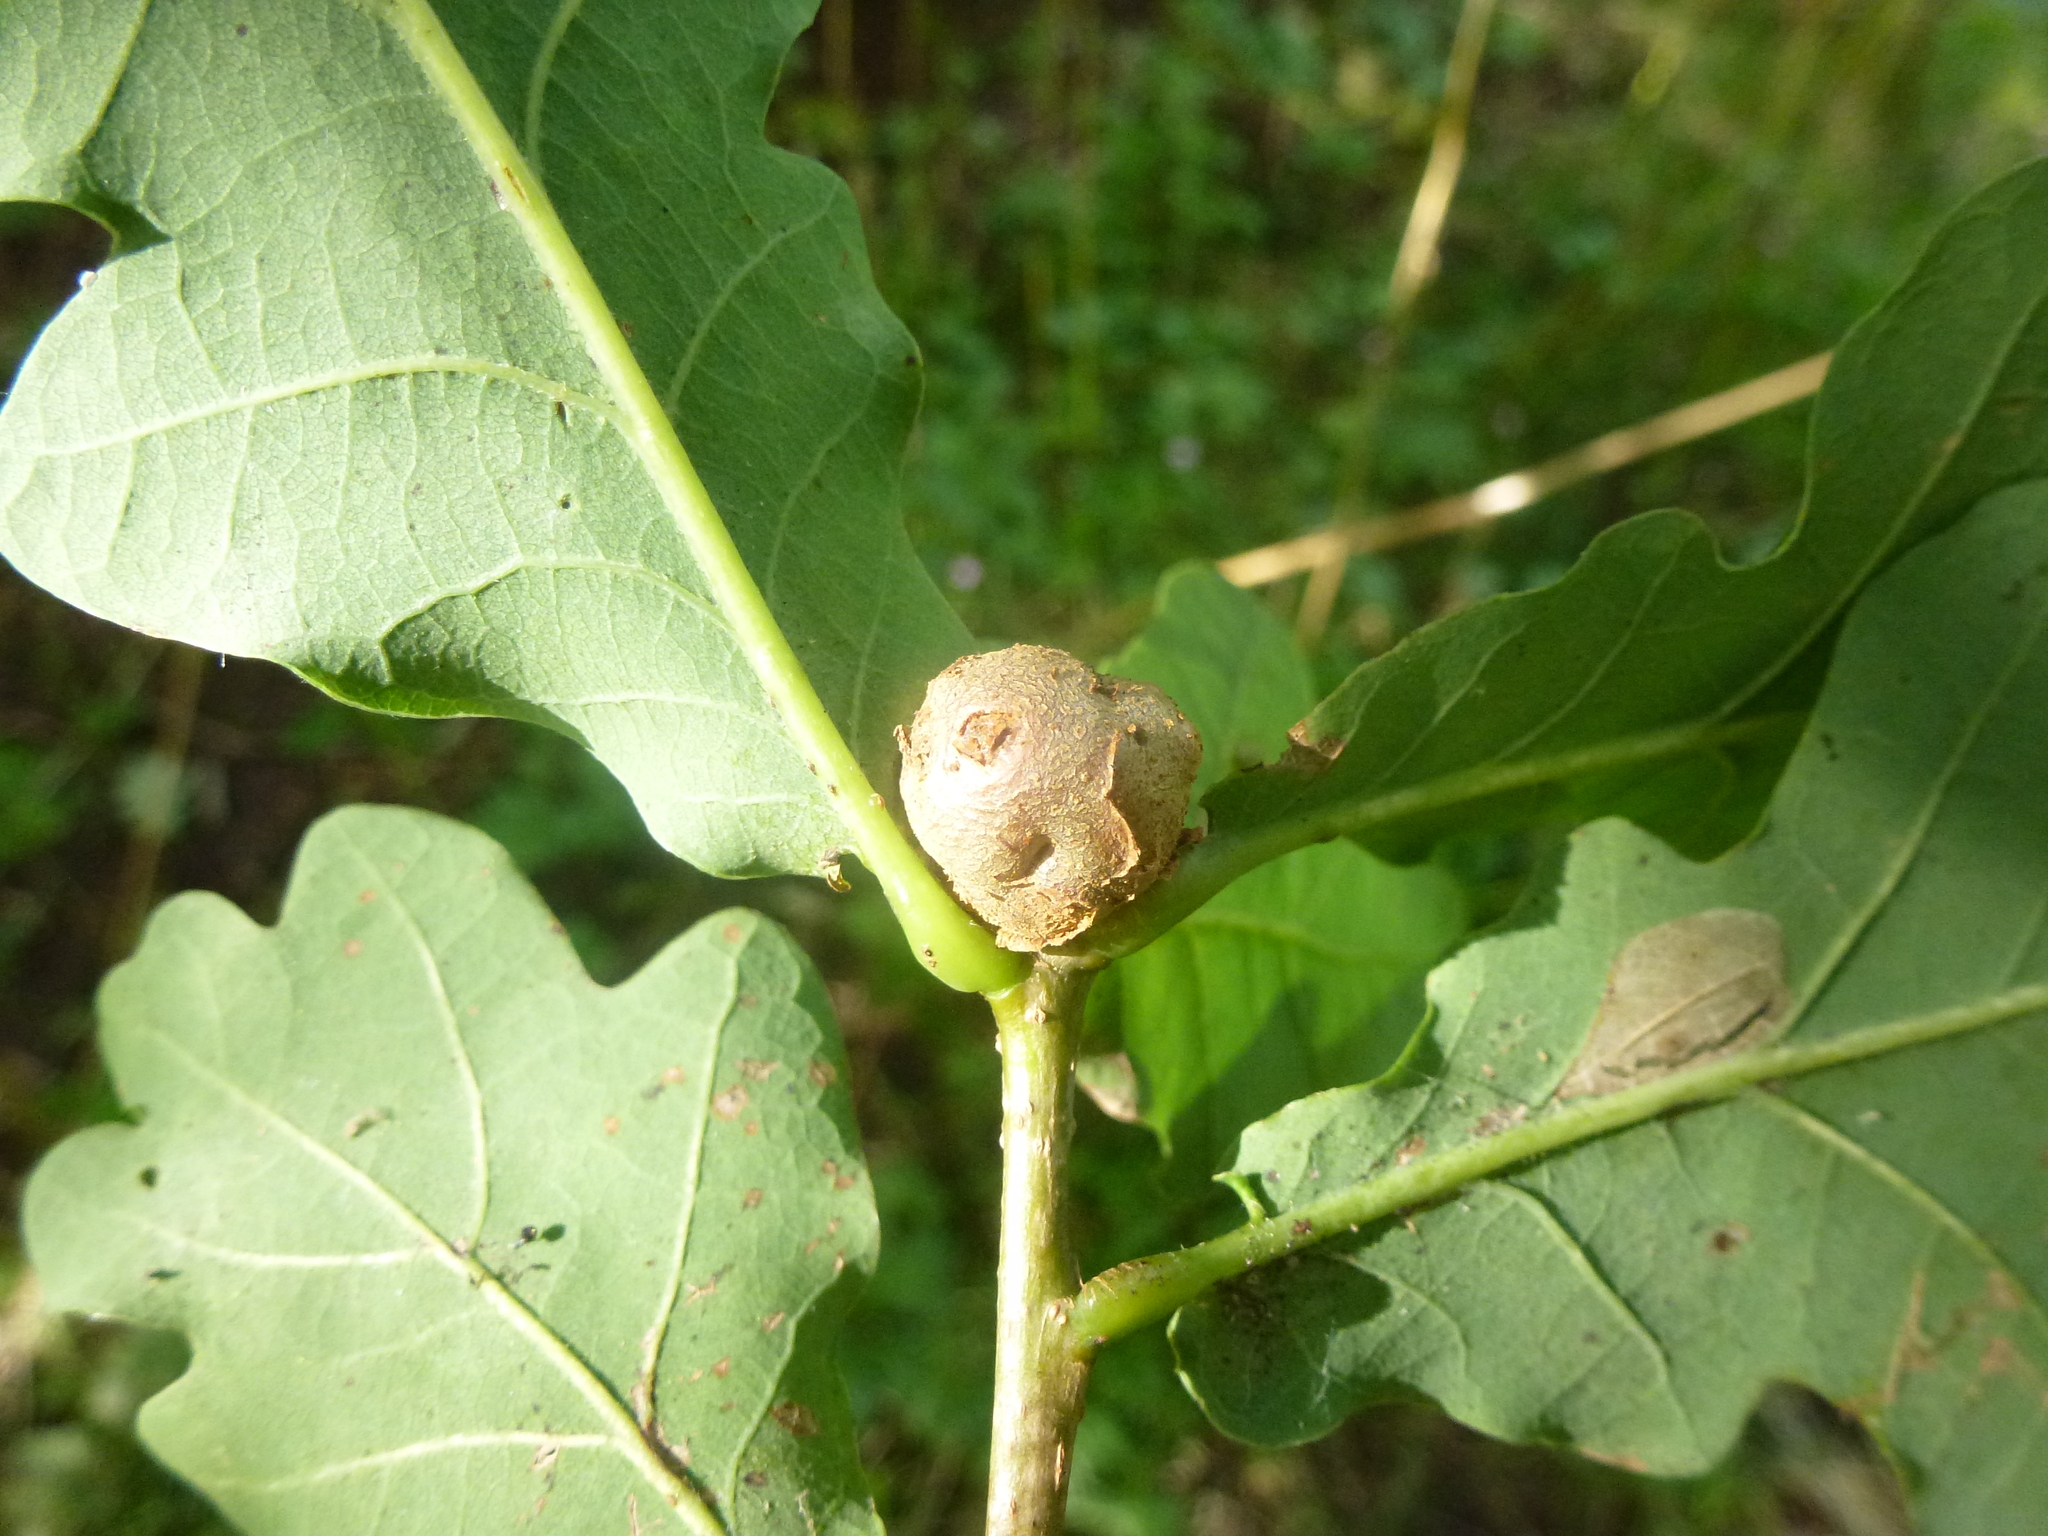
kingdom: Animalia
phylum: Arthropoda
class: Insecta
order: Hymenoptera
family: Cynipidae
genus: Andricus
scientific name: Andricus lignicolus
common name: Cola-nut gall
